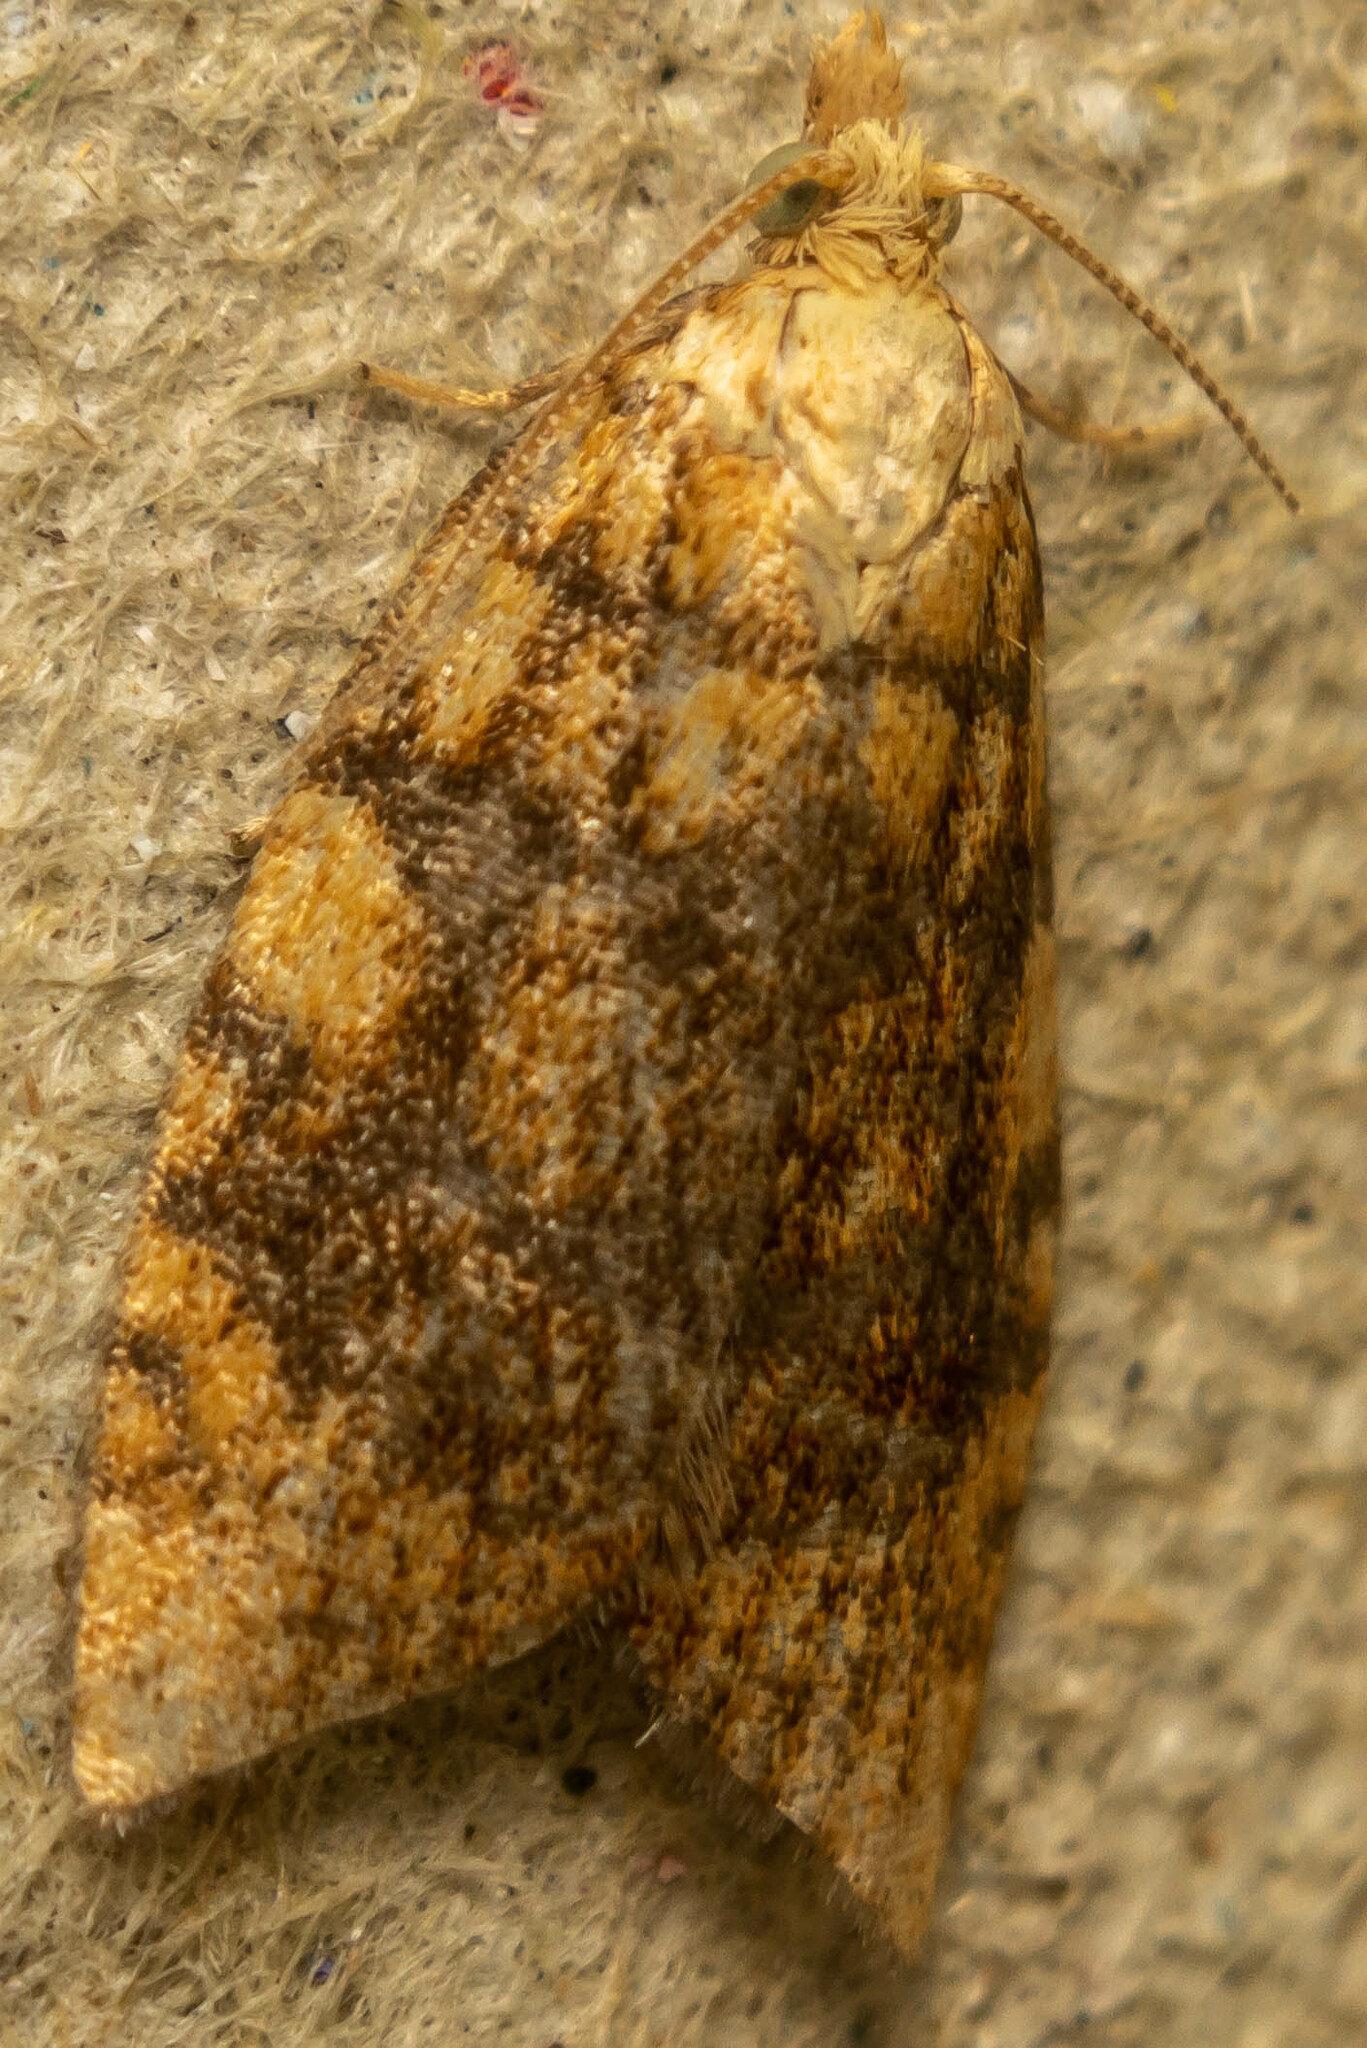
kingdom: Animalia
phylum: Arthropoda
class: Insecta
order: Lepidoptera
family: Tortricidae
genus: Aleimma
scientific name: Aleimma loeflingiana
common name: Yellow oak button
